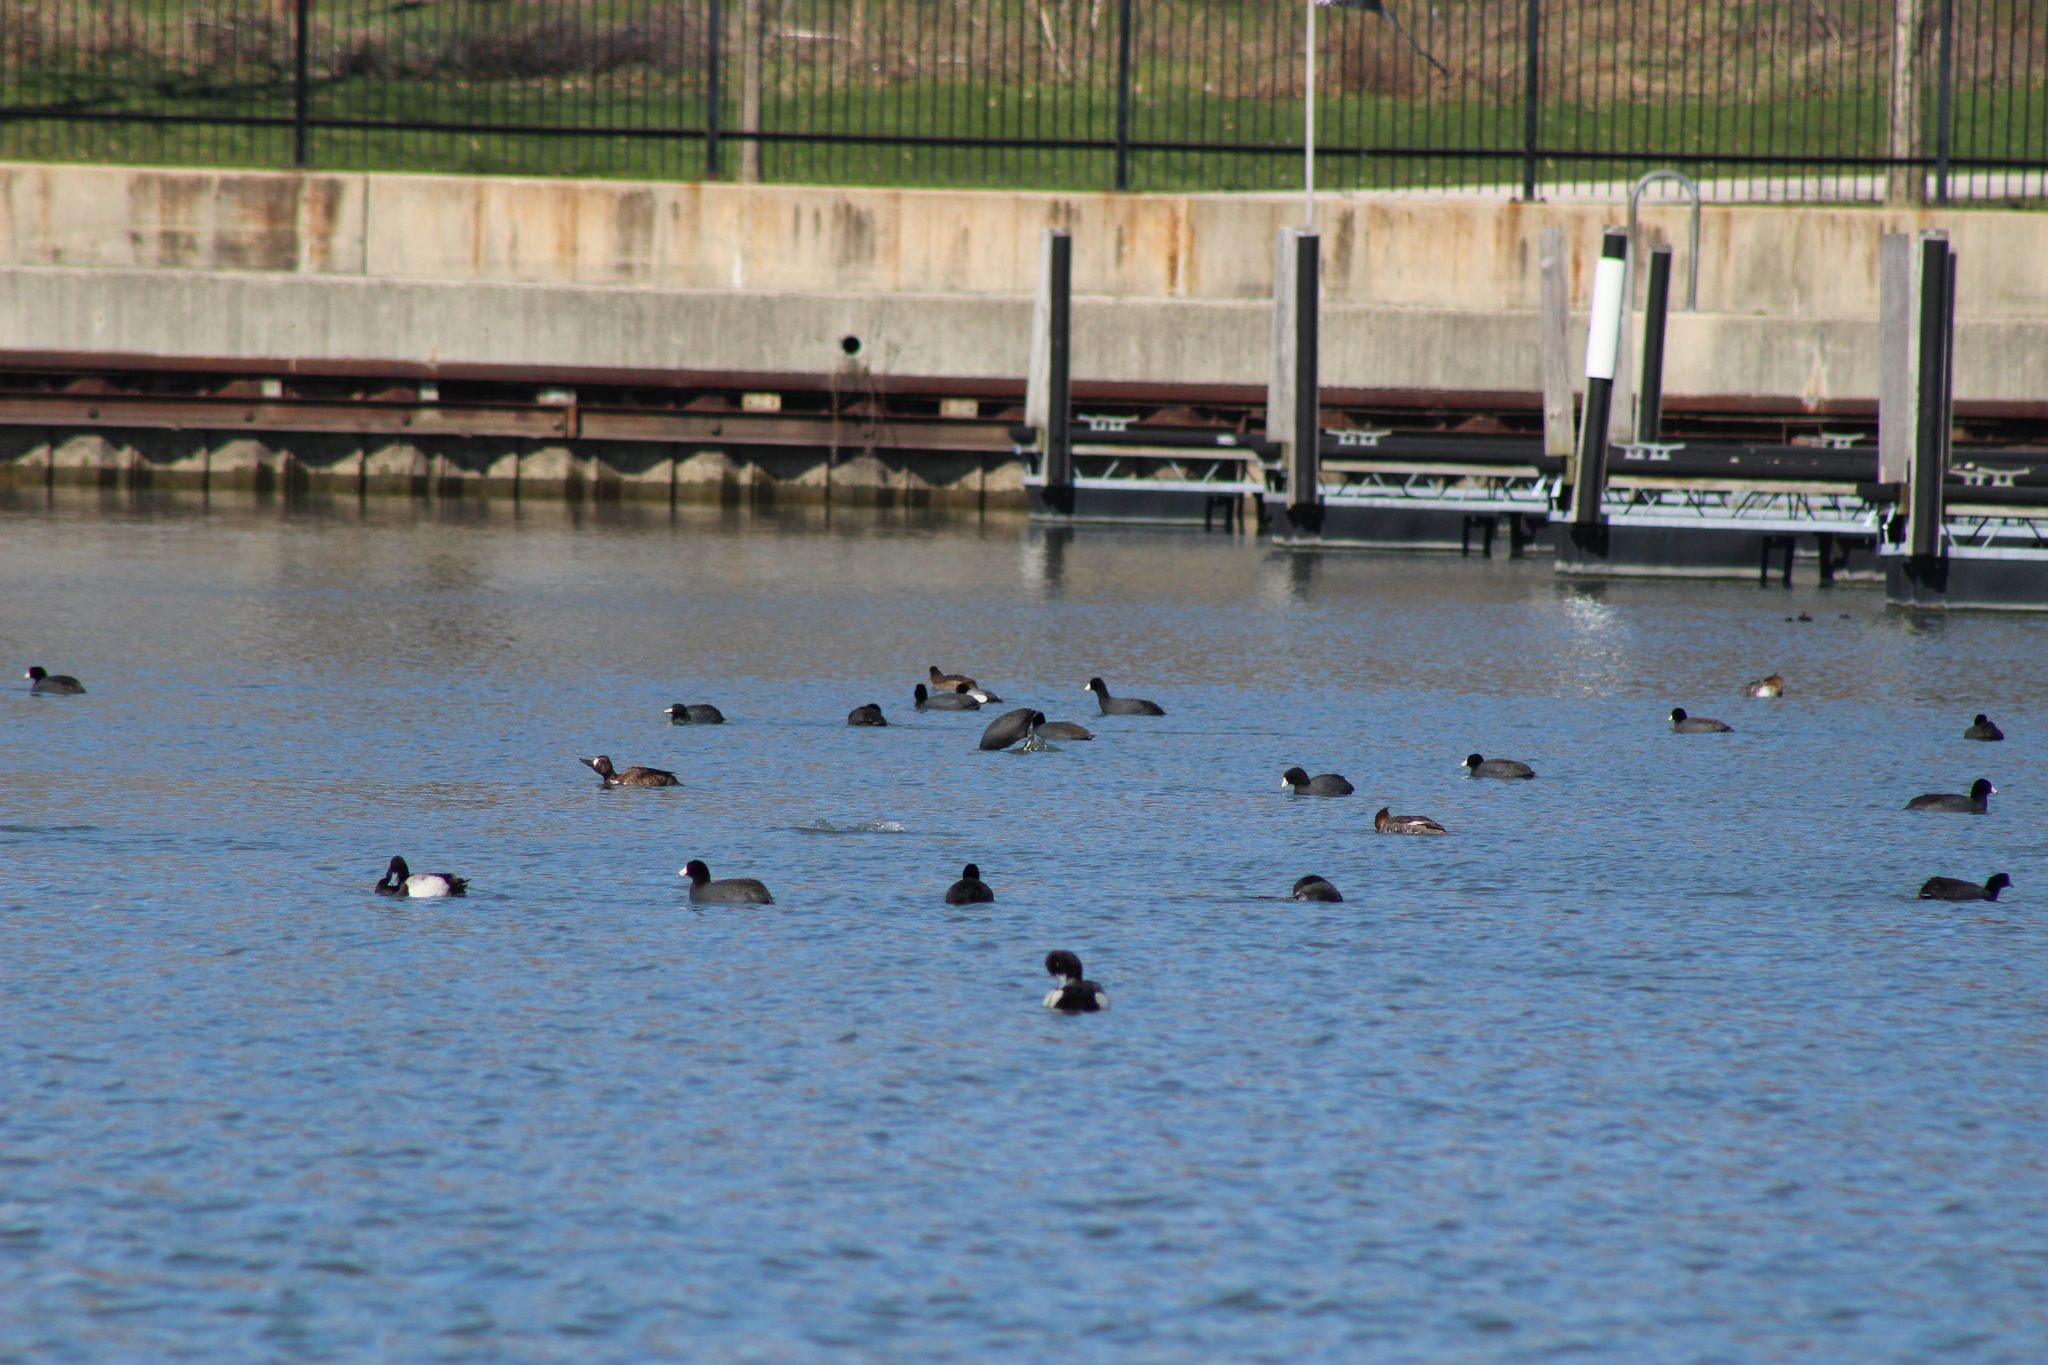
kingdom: Animalia
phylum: Chordata
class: Aves
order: Gruiformes
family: Rallidae
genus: Fulica
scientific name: Fulica americana
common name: American coot
